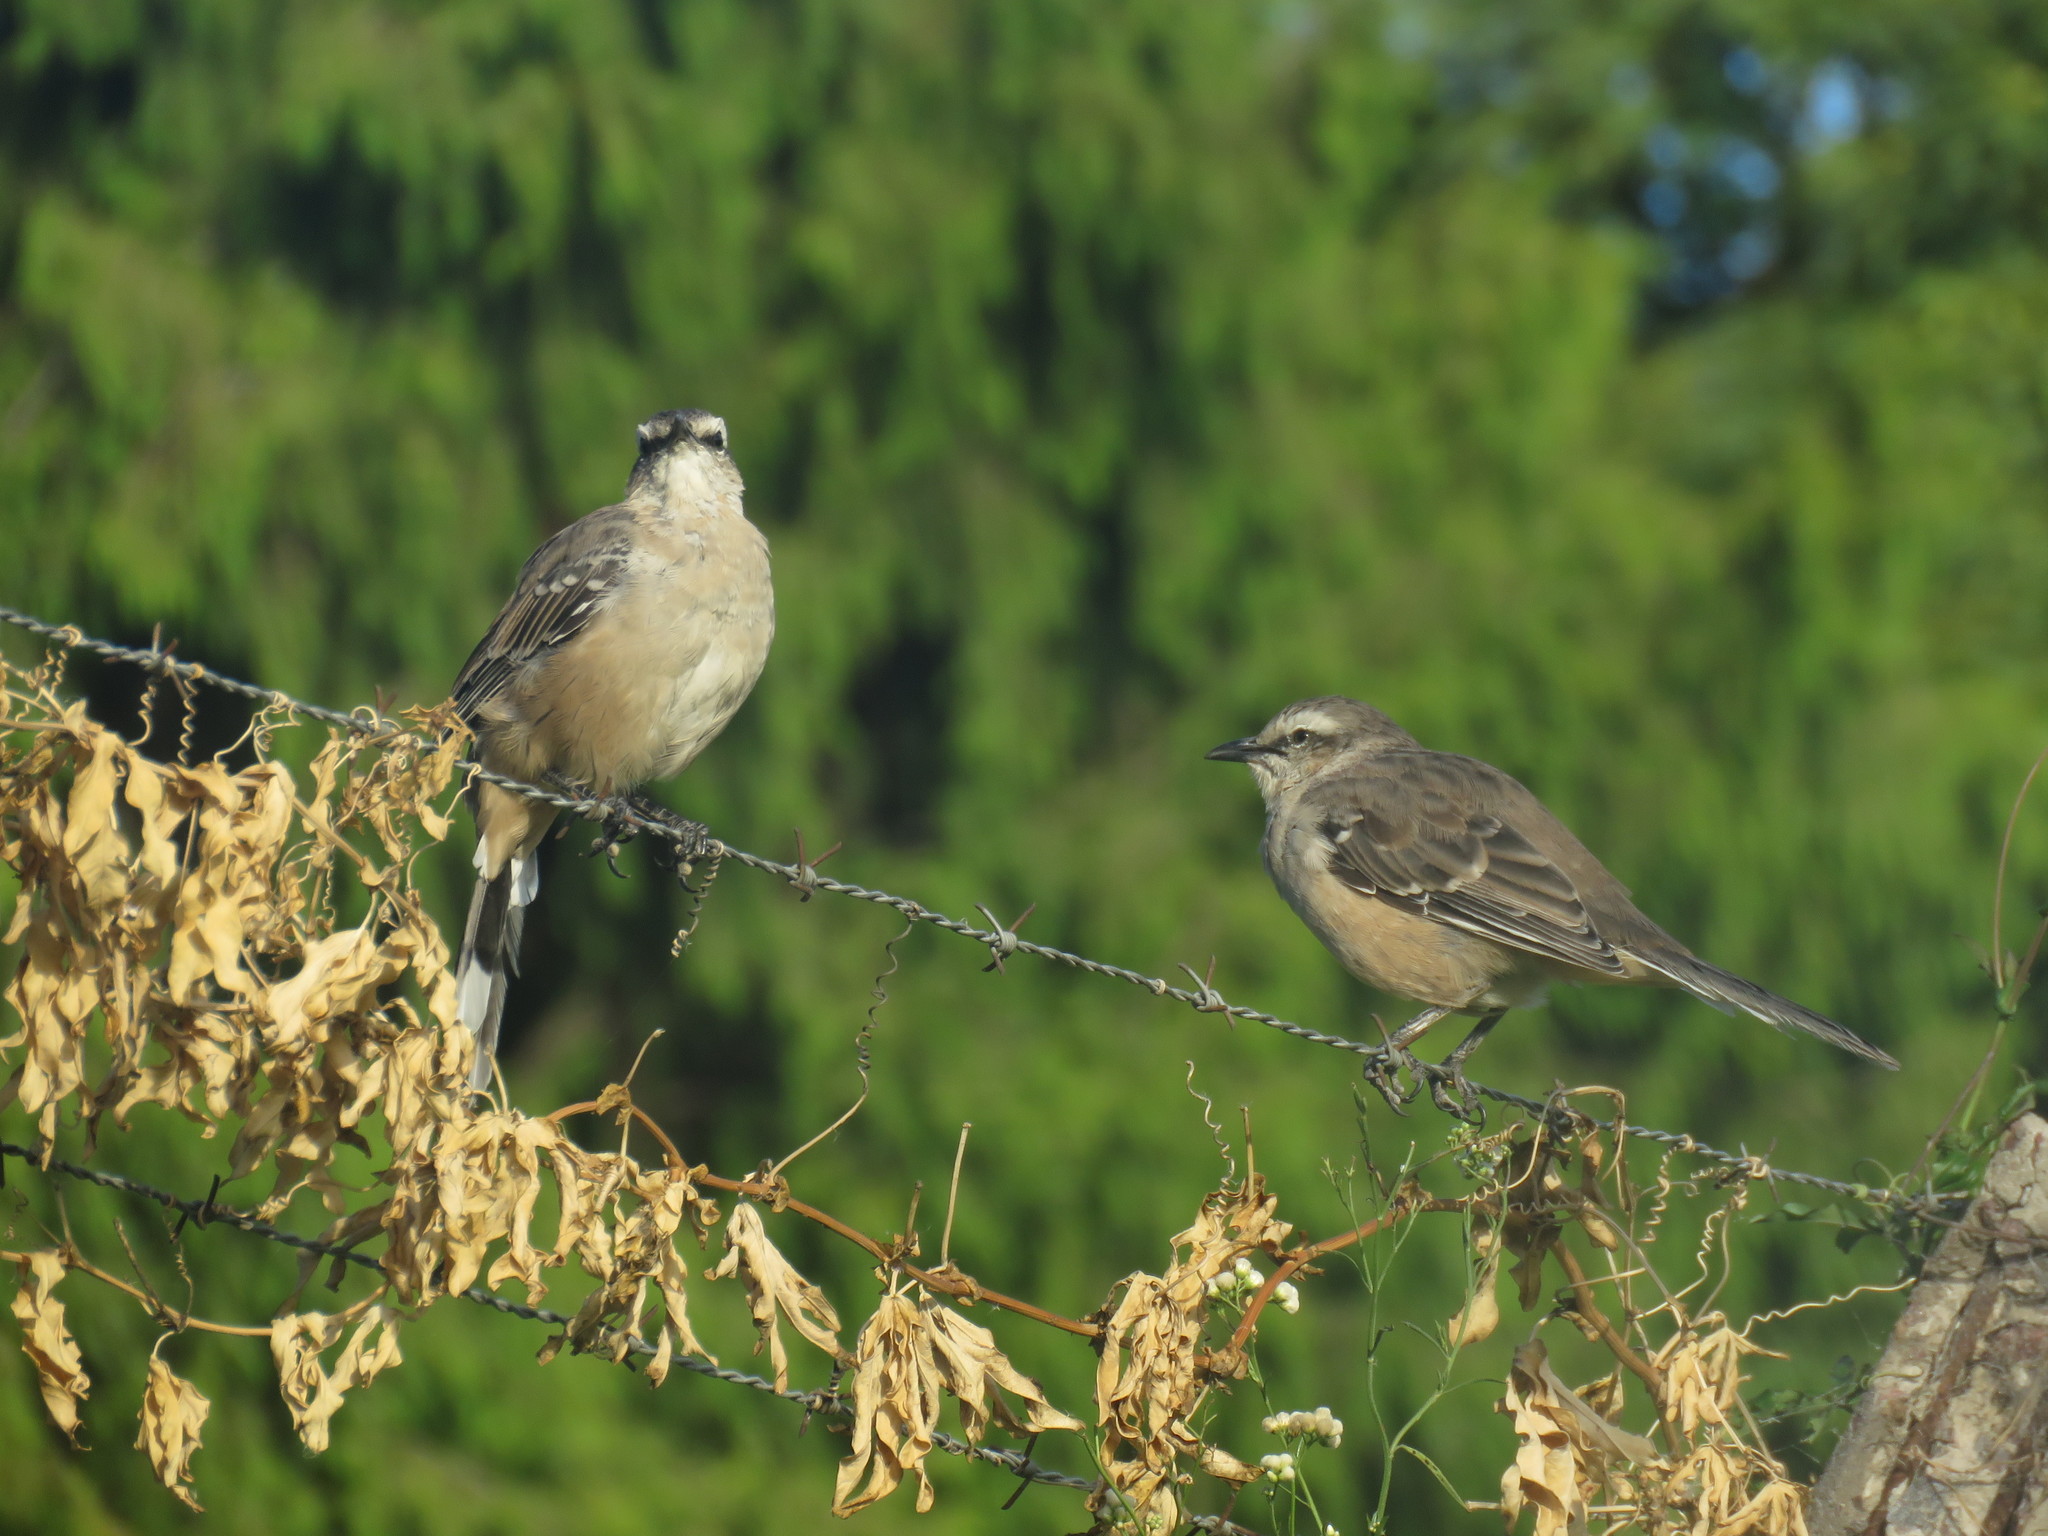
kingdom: Animalia
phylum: Chordata
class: Aves
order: Passeriformes
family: Mimidae
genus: Mimus
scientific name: Mimus saturninus
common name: Chalk-browed mockingbird
